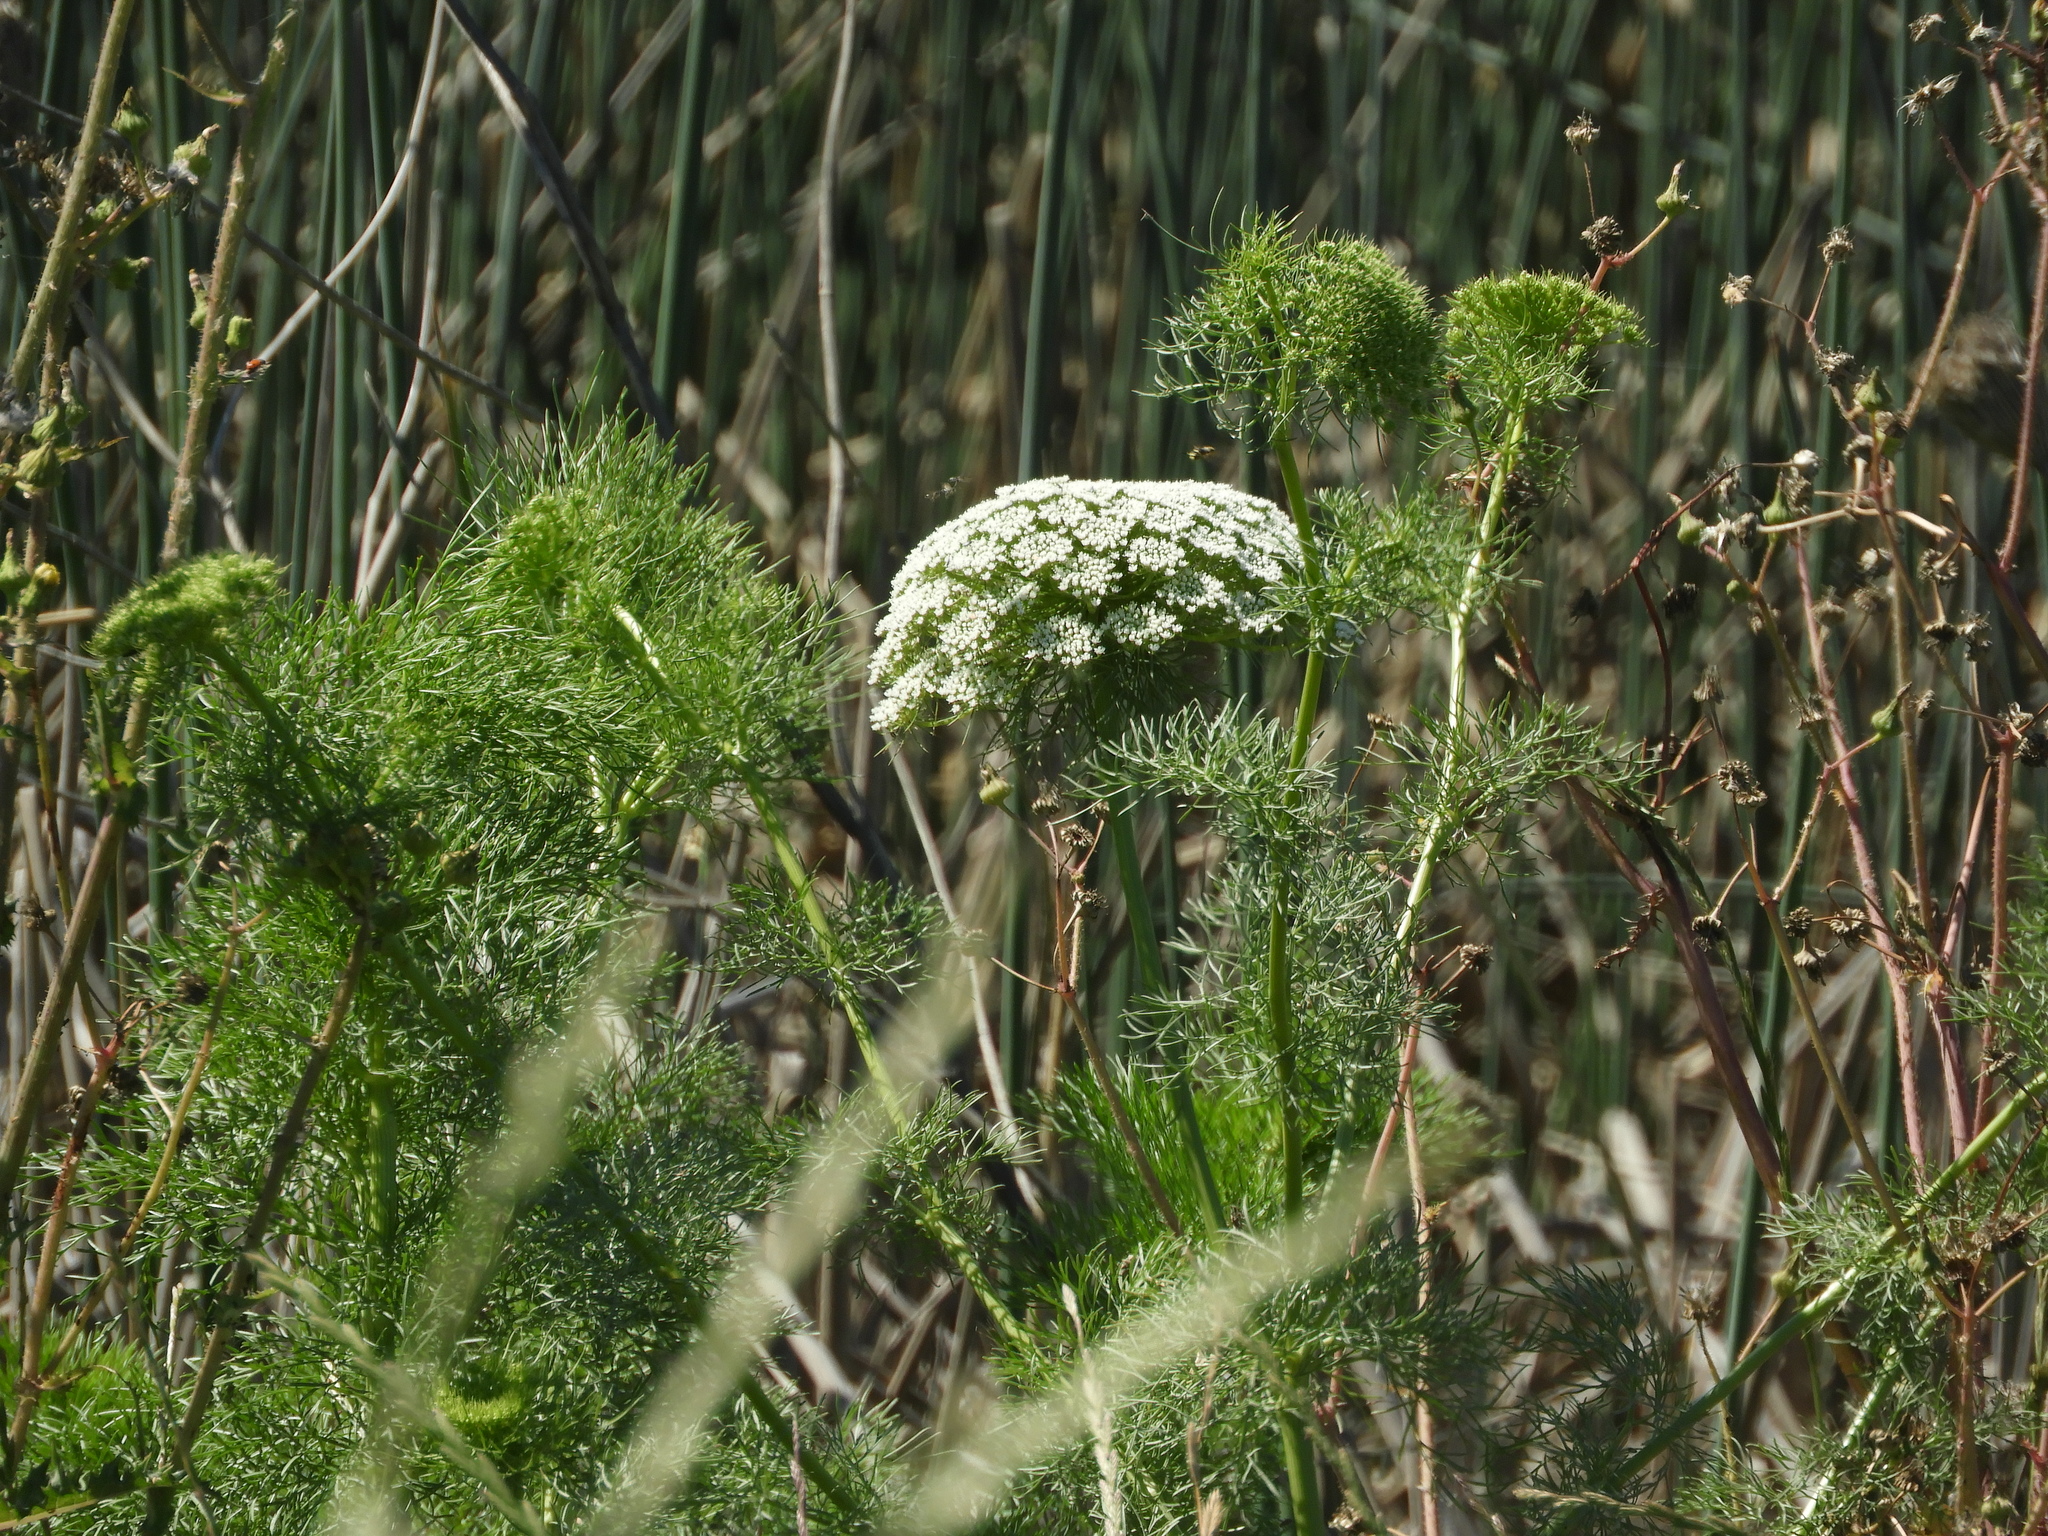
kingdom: Plantae
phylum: Tracheophyta
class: Magnoliopsida
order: Apiales
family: Apiaceae
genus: Visnaga
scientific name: Visnaga daucoides
